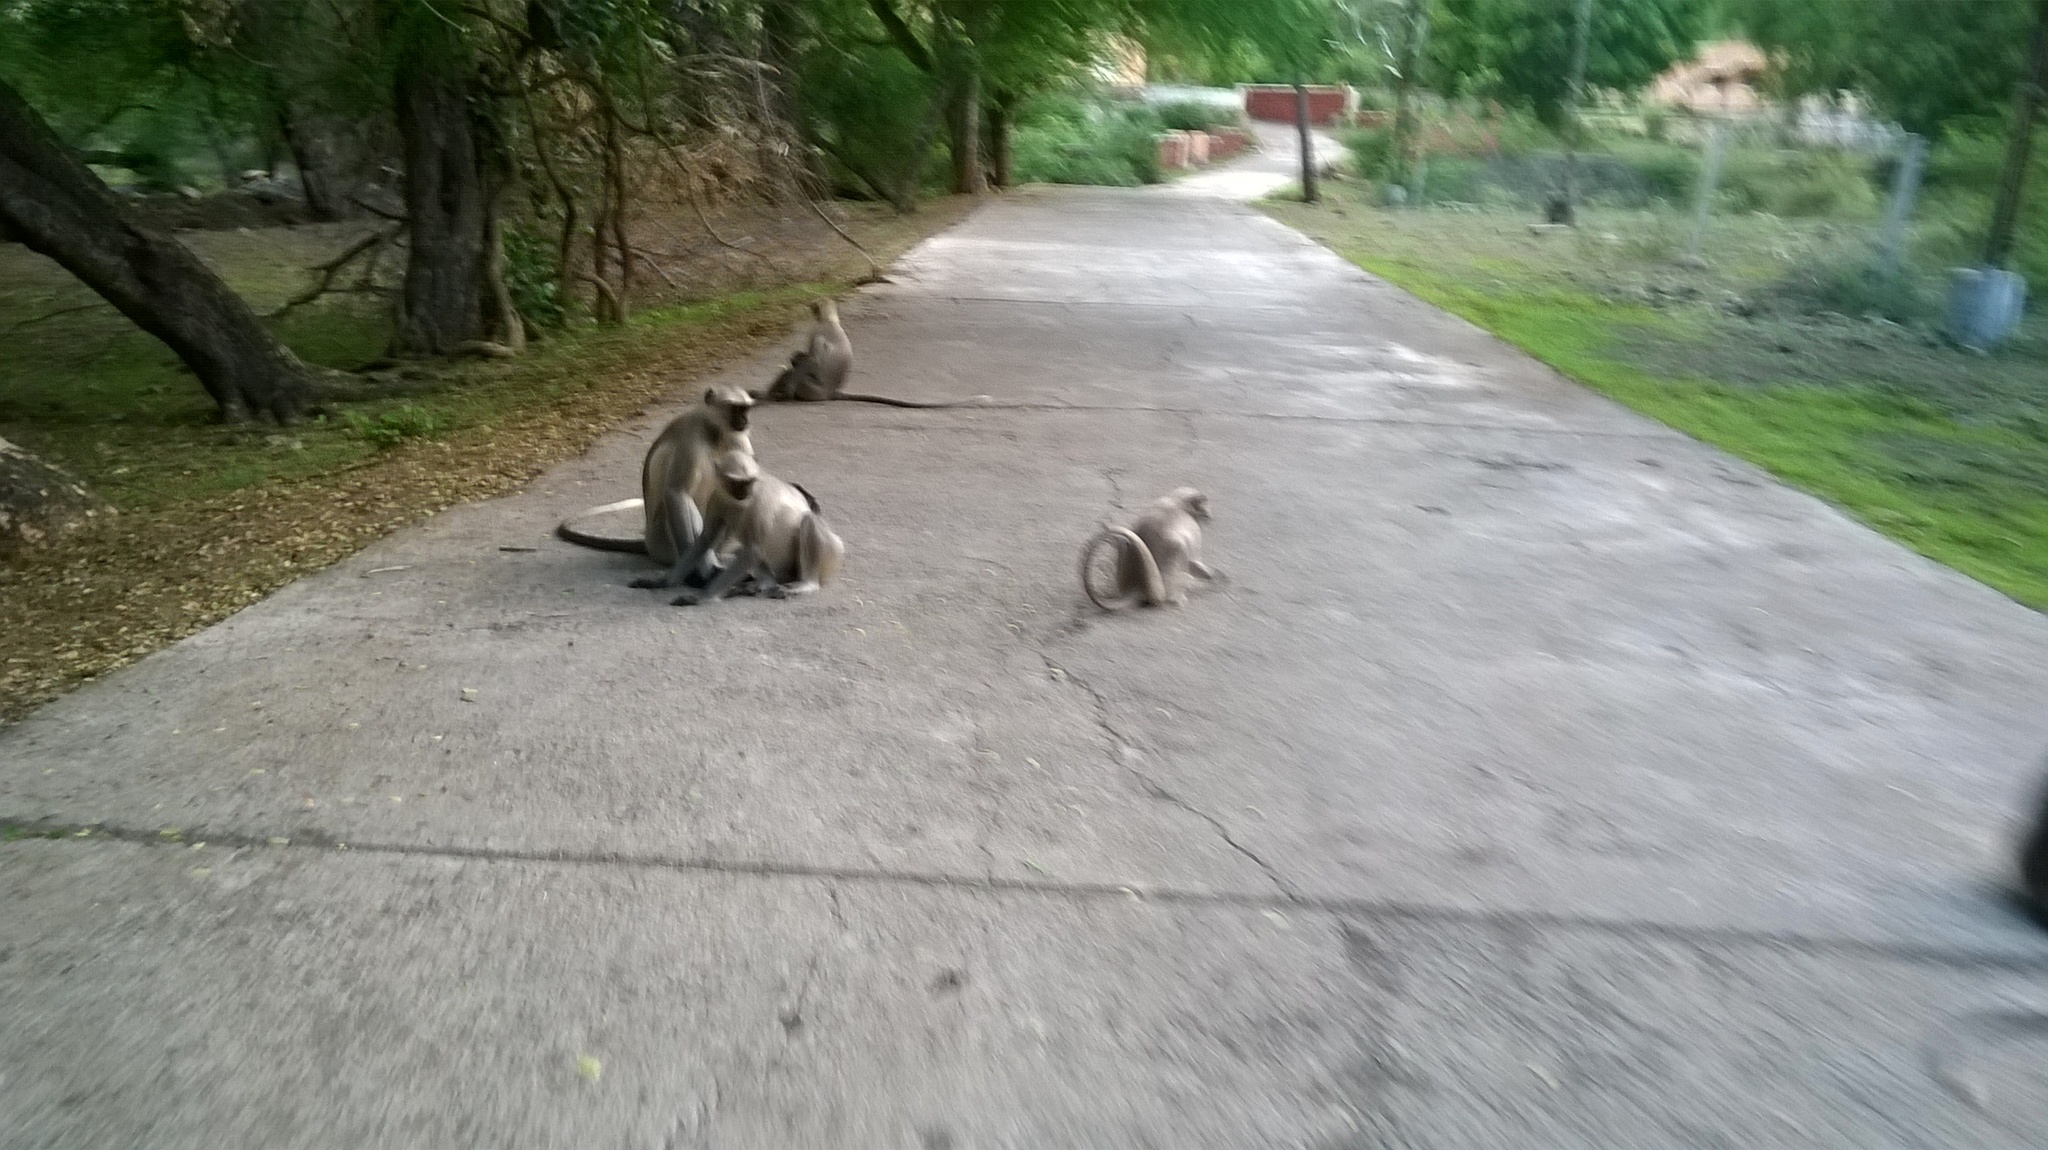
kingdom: Animalia
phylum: Chordata
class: Mammalia
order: Primates
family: Cercopithecidae
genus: Semnopithecus
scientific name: Semnopithecus entellus
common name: Northern plains gray langur
